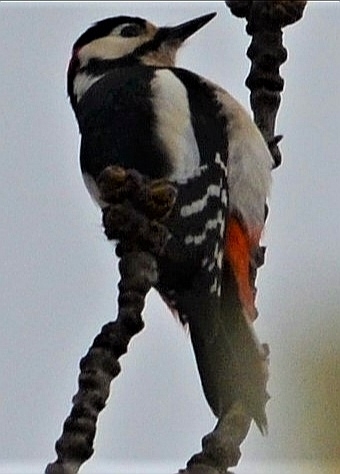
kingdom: Animalia
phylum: Chordata
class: Aves
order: Piciformes
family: Picidae
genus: Dendrocopos
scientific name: Dendrocopos major
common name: Great spotted woodpecker
